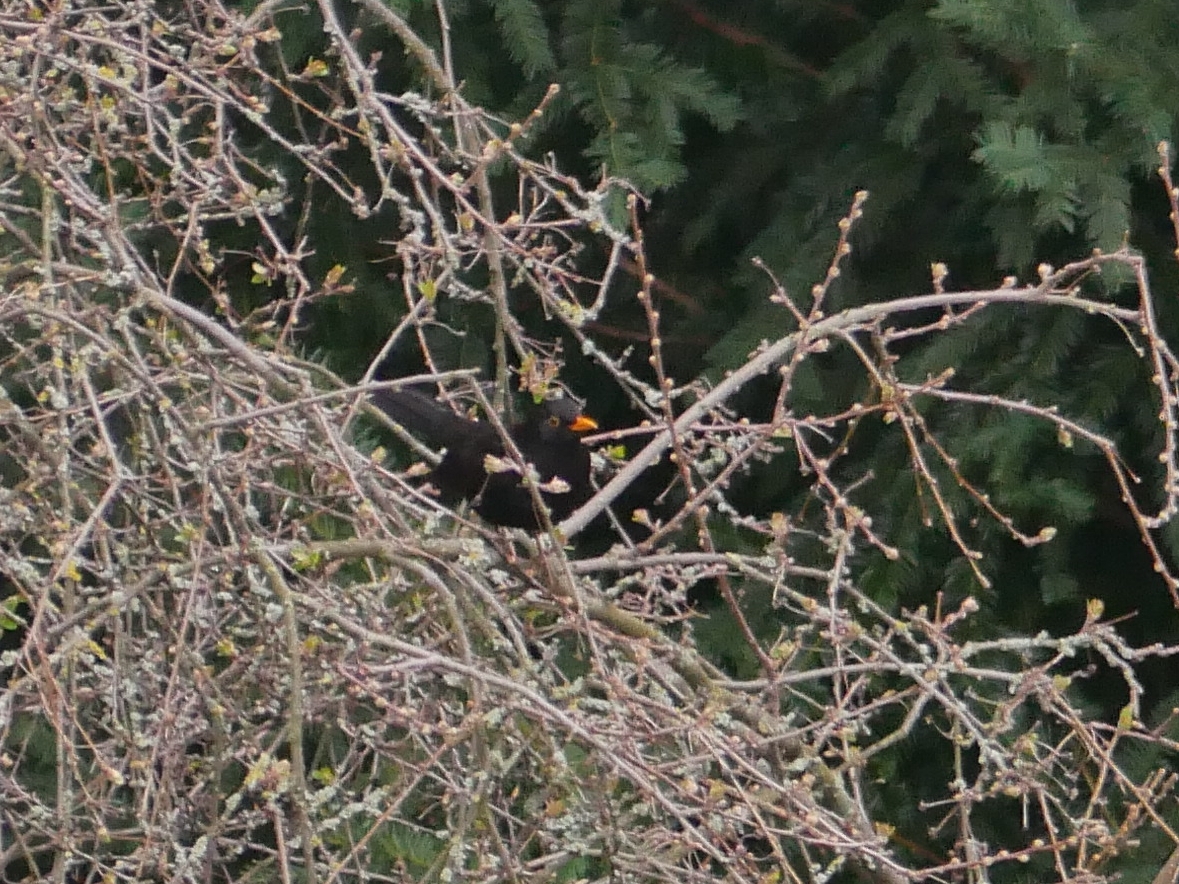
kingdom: Animalia
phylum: Chordata
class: Aves
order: Passeriformes
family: Turdidae
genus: Turdus
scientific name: Turdus merula
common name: Common blackbird
